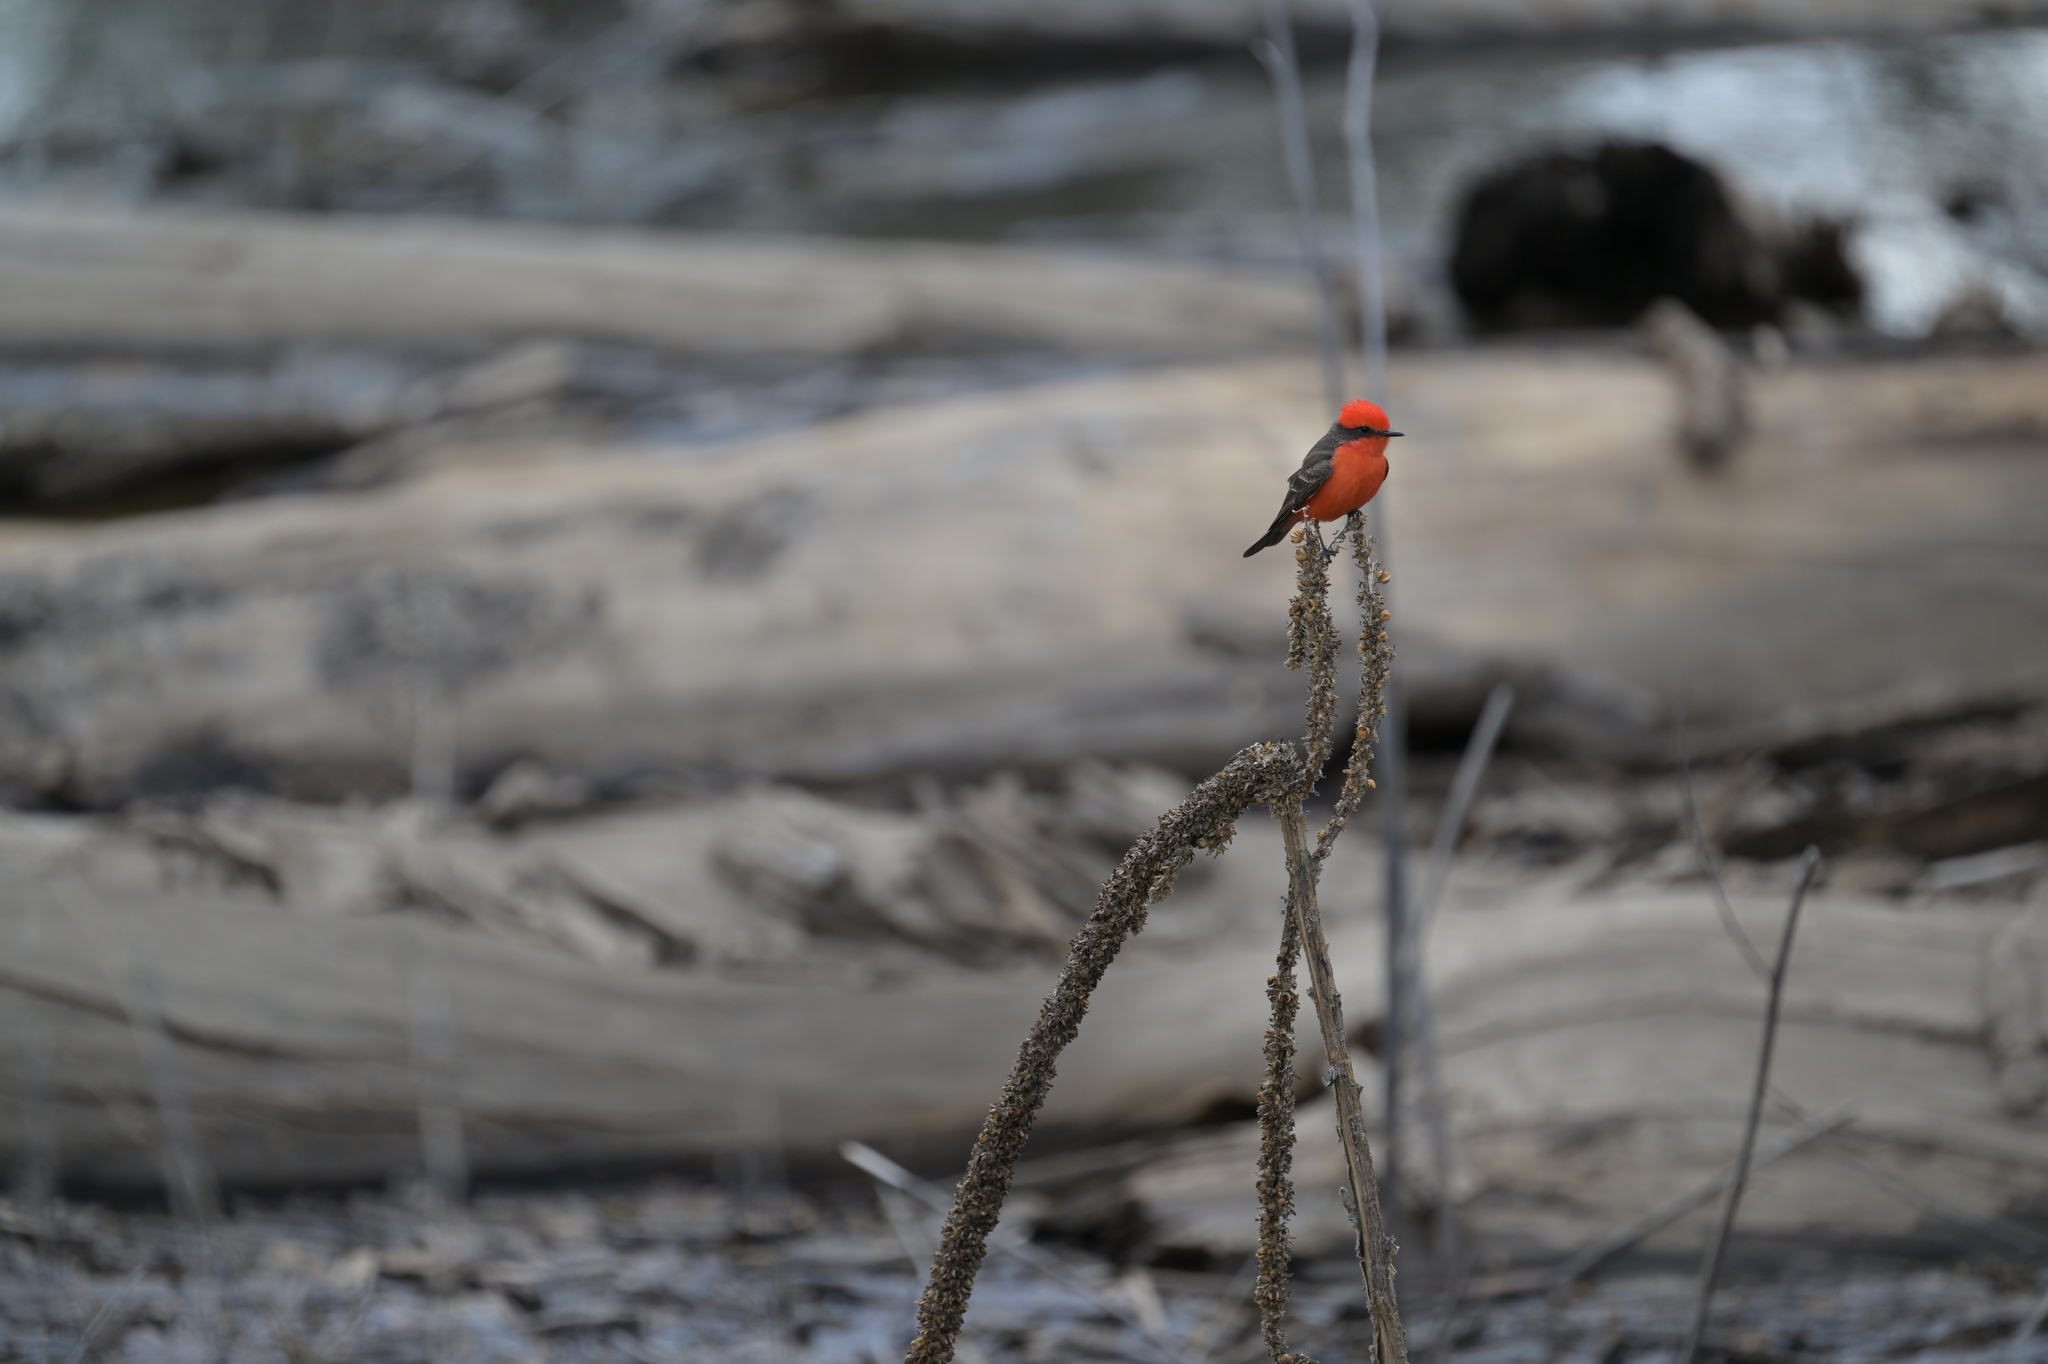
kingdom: Animalia
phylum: Chordata
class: Aves
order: Passeriformes
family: Tyrannidae
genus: Pyrocephalus
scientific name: Pyrocephalus rubinus
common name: Vermilion flycatcher
